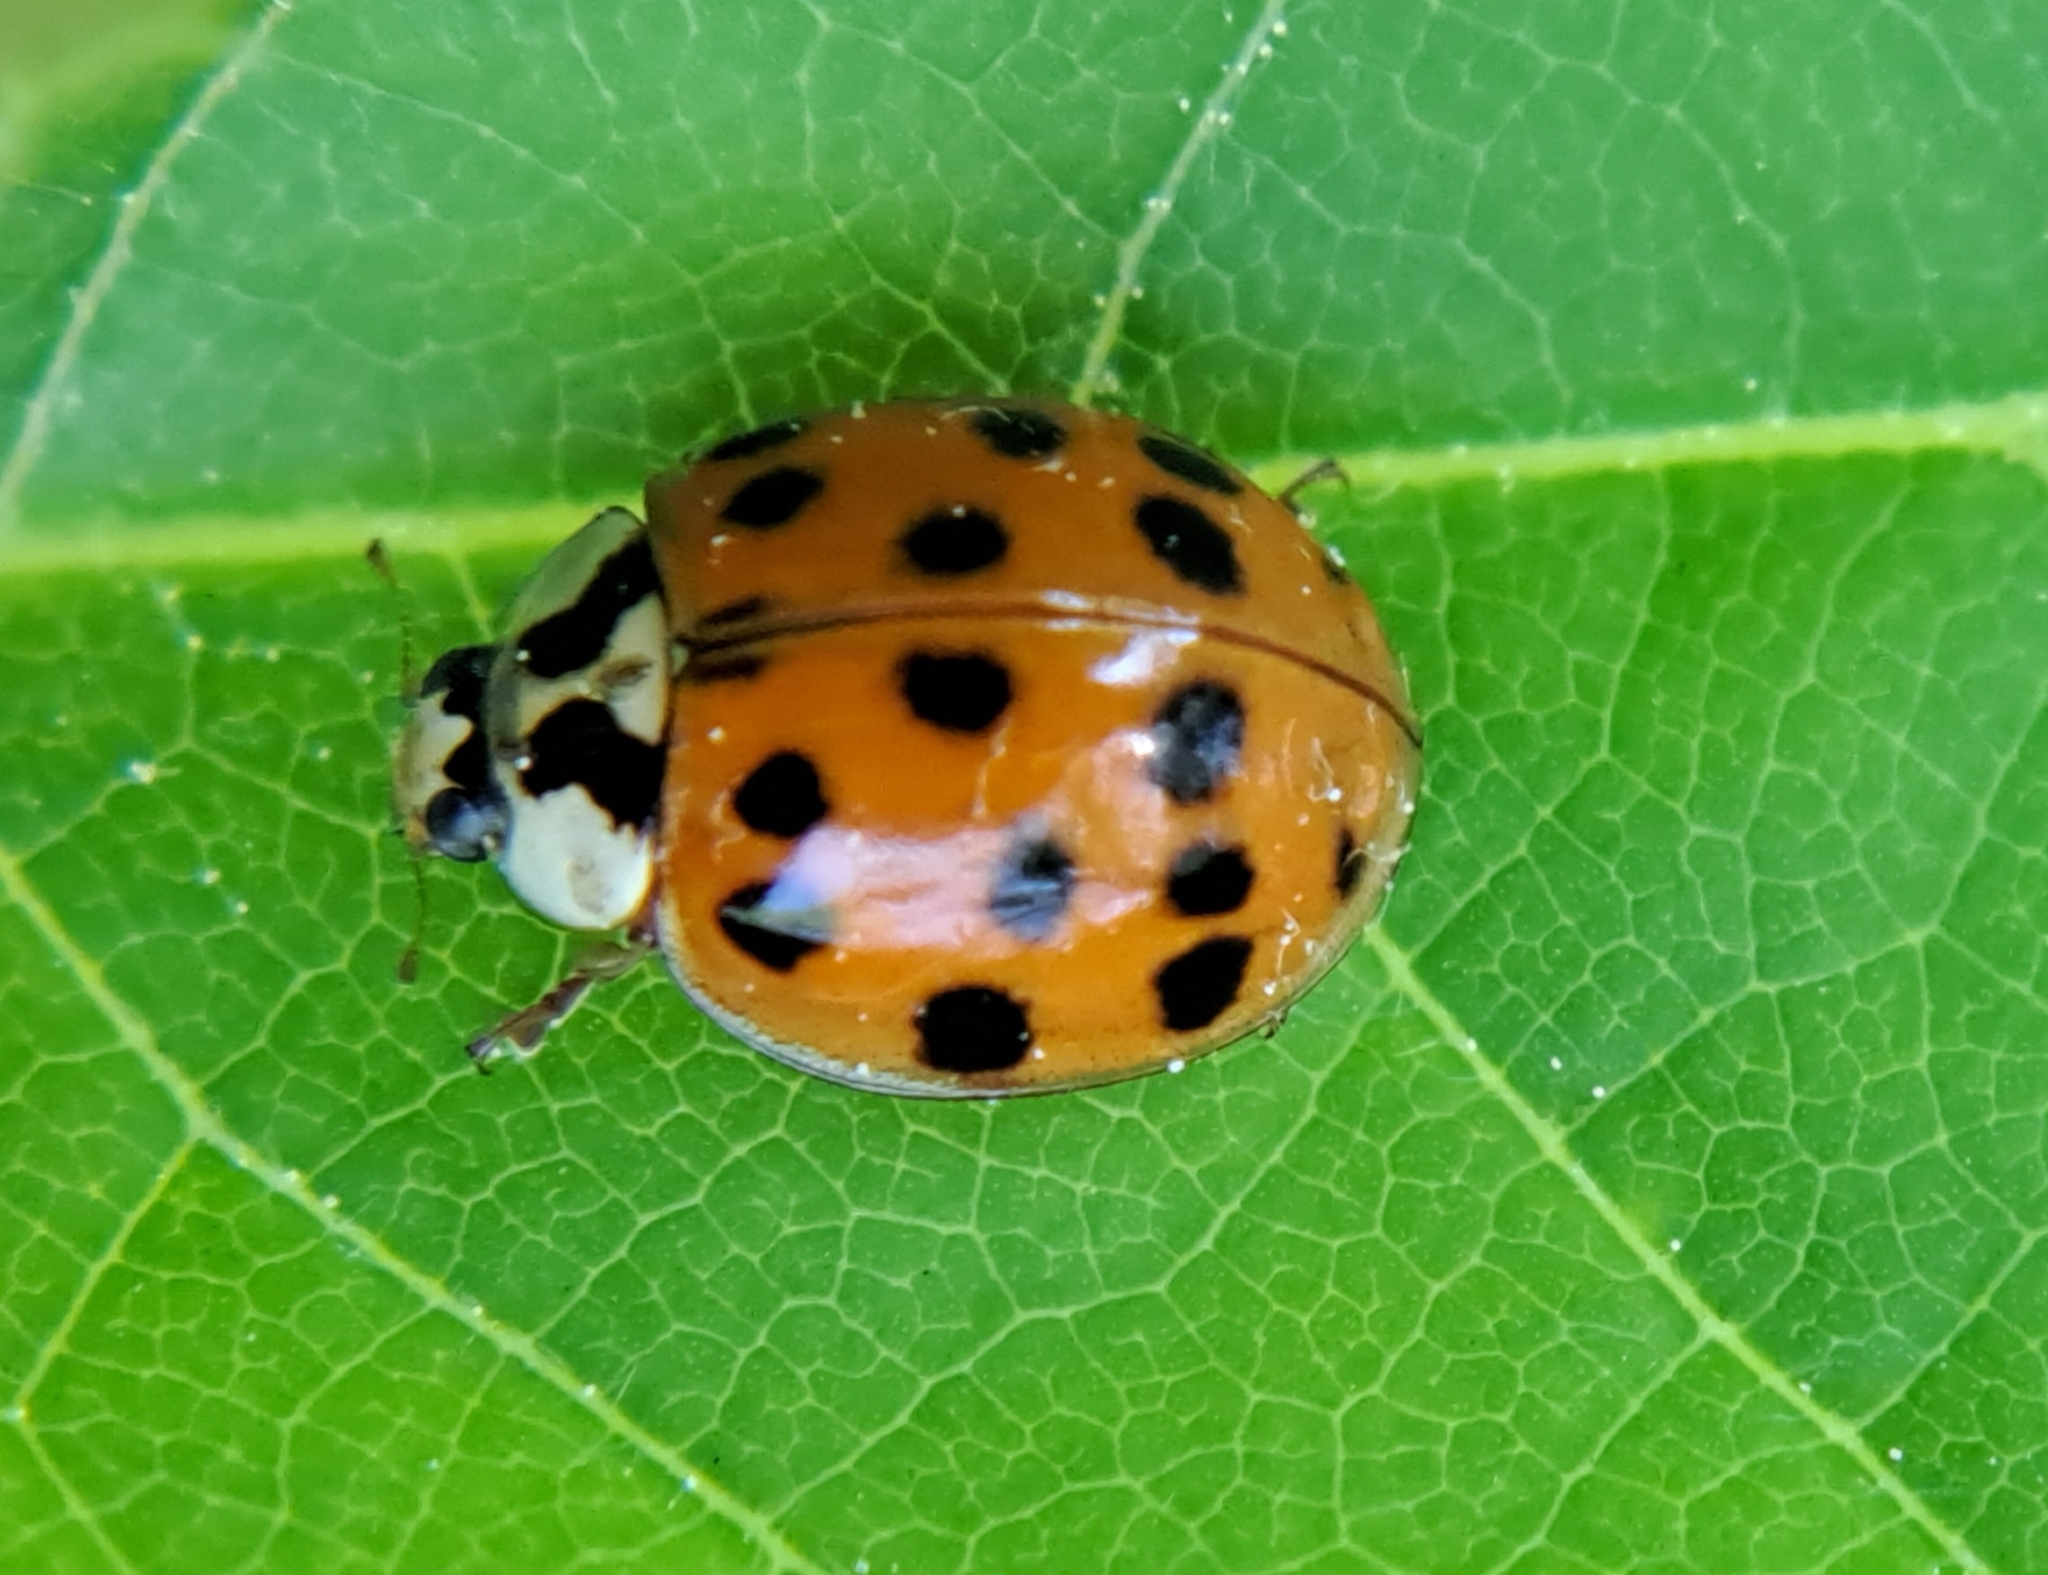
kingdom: Animalia
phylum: Arthropoda
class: Insecta
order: Coleoptera
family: Coccinellidae
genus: Harmonia
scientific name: Harmonia axyridis
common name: Harlequin ladybird
